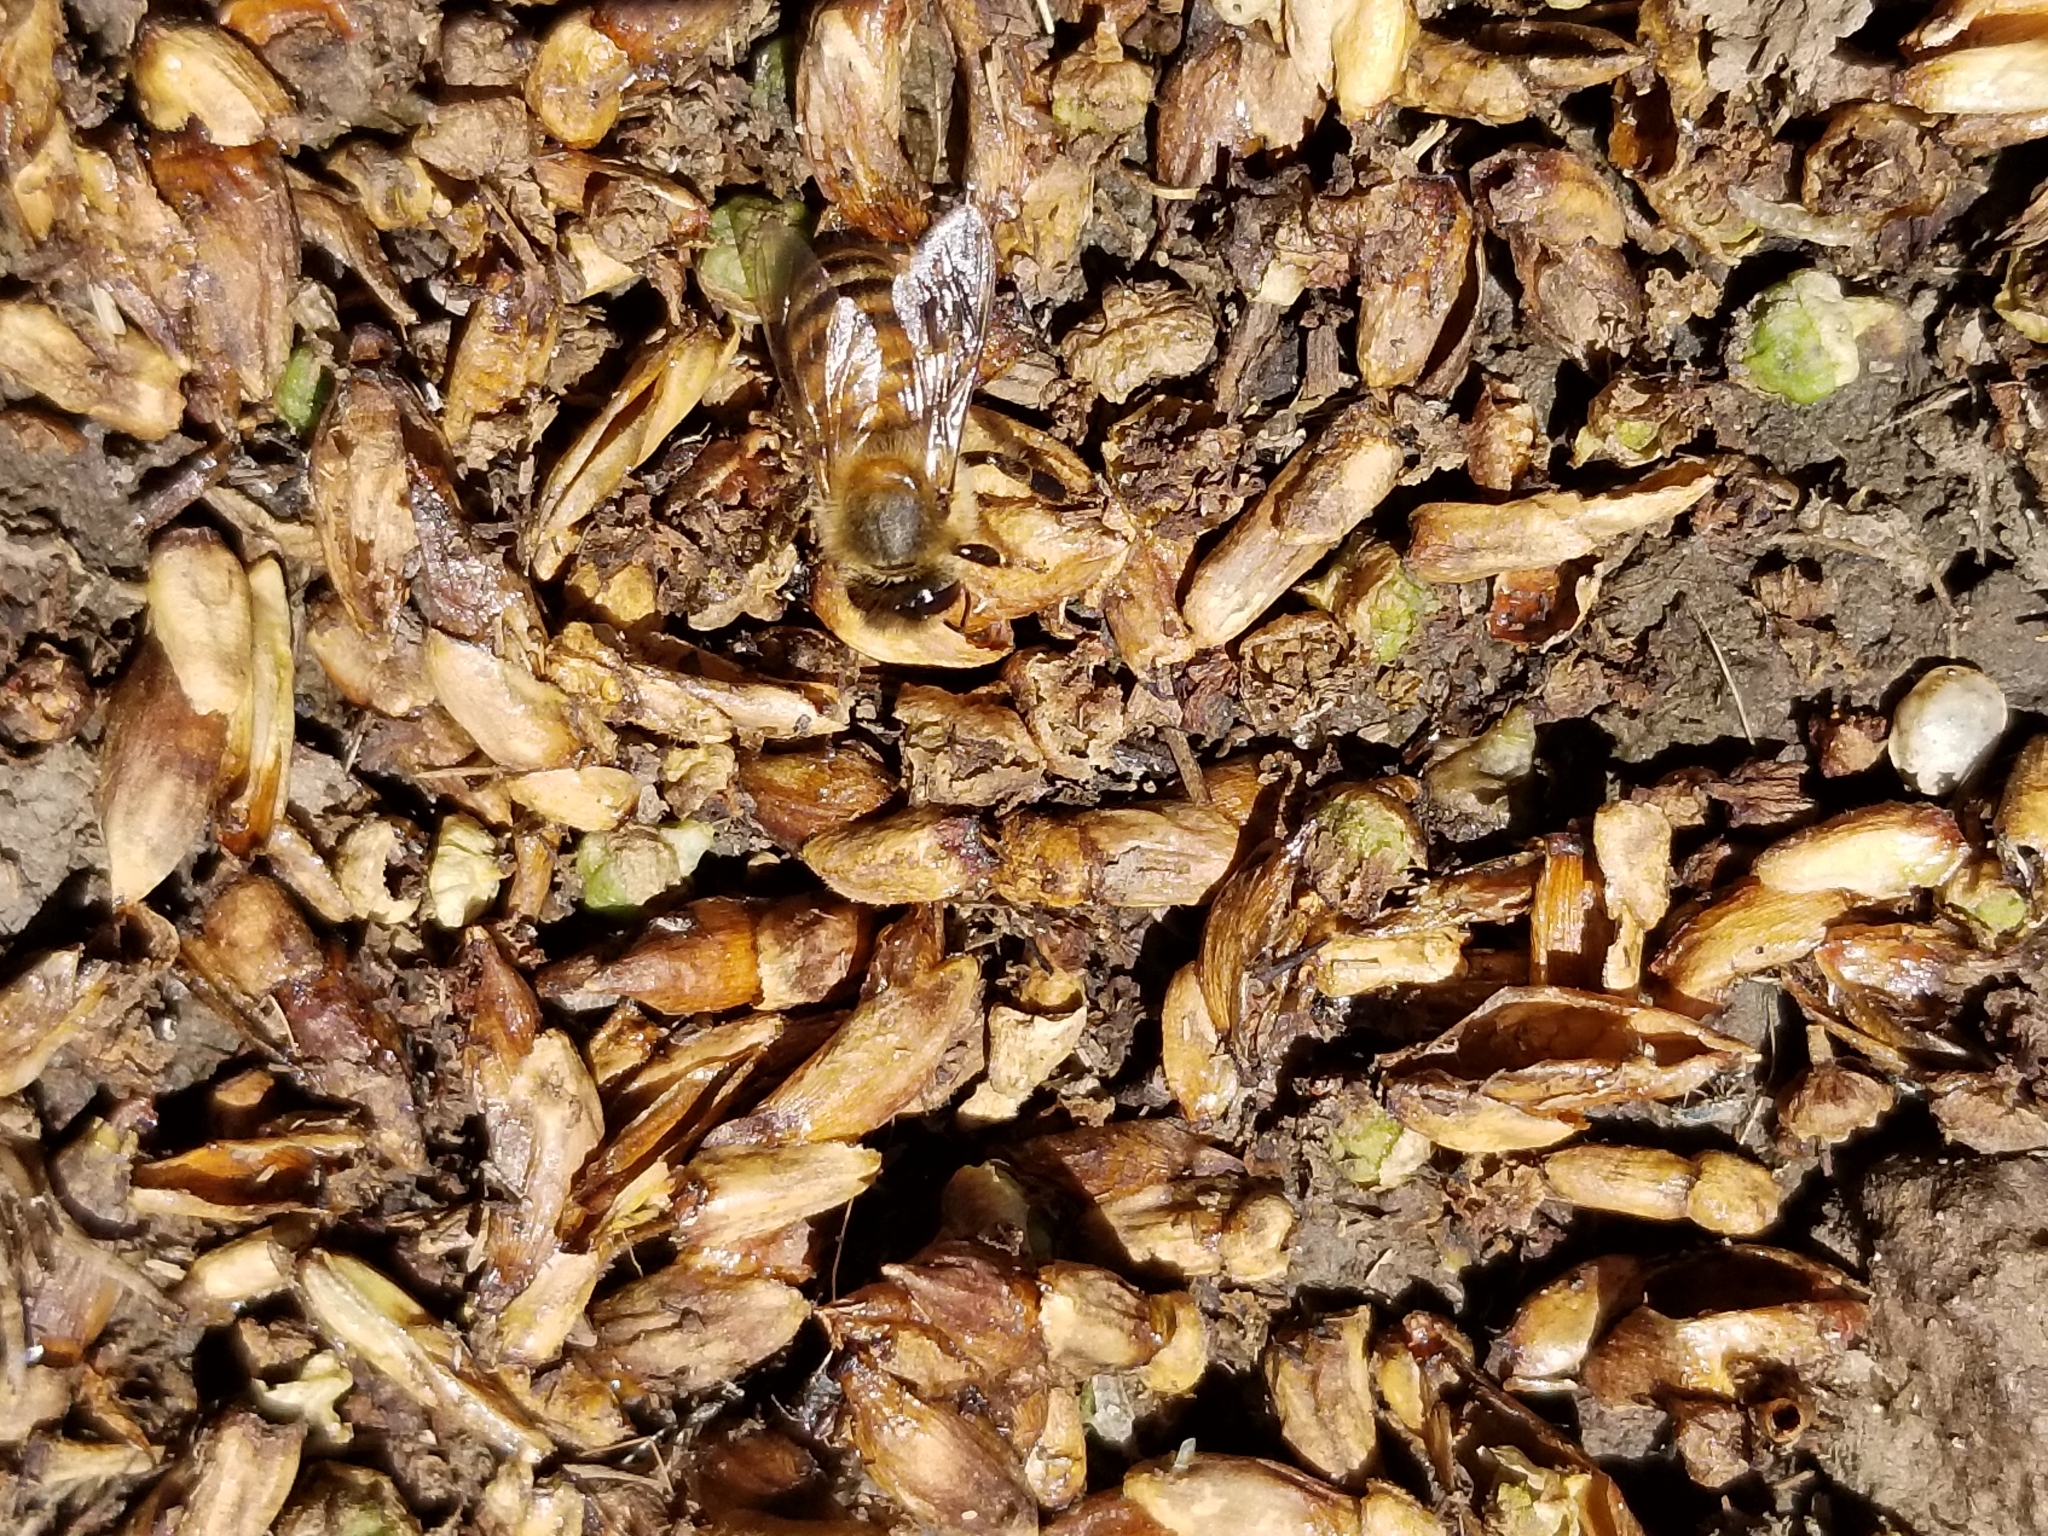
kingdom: Animalia
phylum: Arthropoda
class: Insecta
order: Hymenoptera
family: Apidae
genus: Apis
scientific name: Apis mellifera
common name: Honey bee
